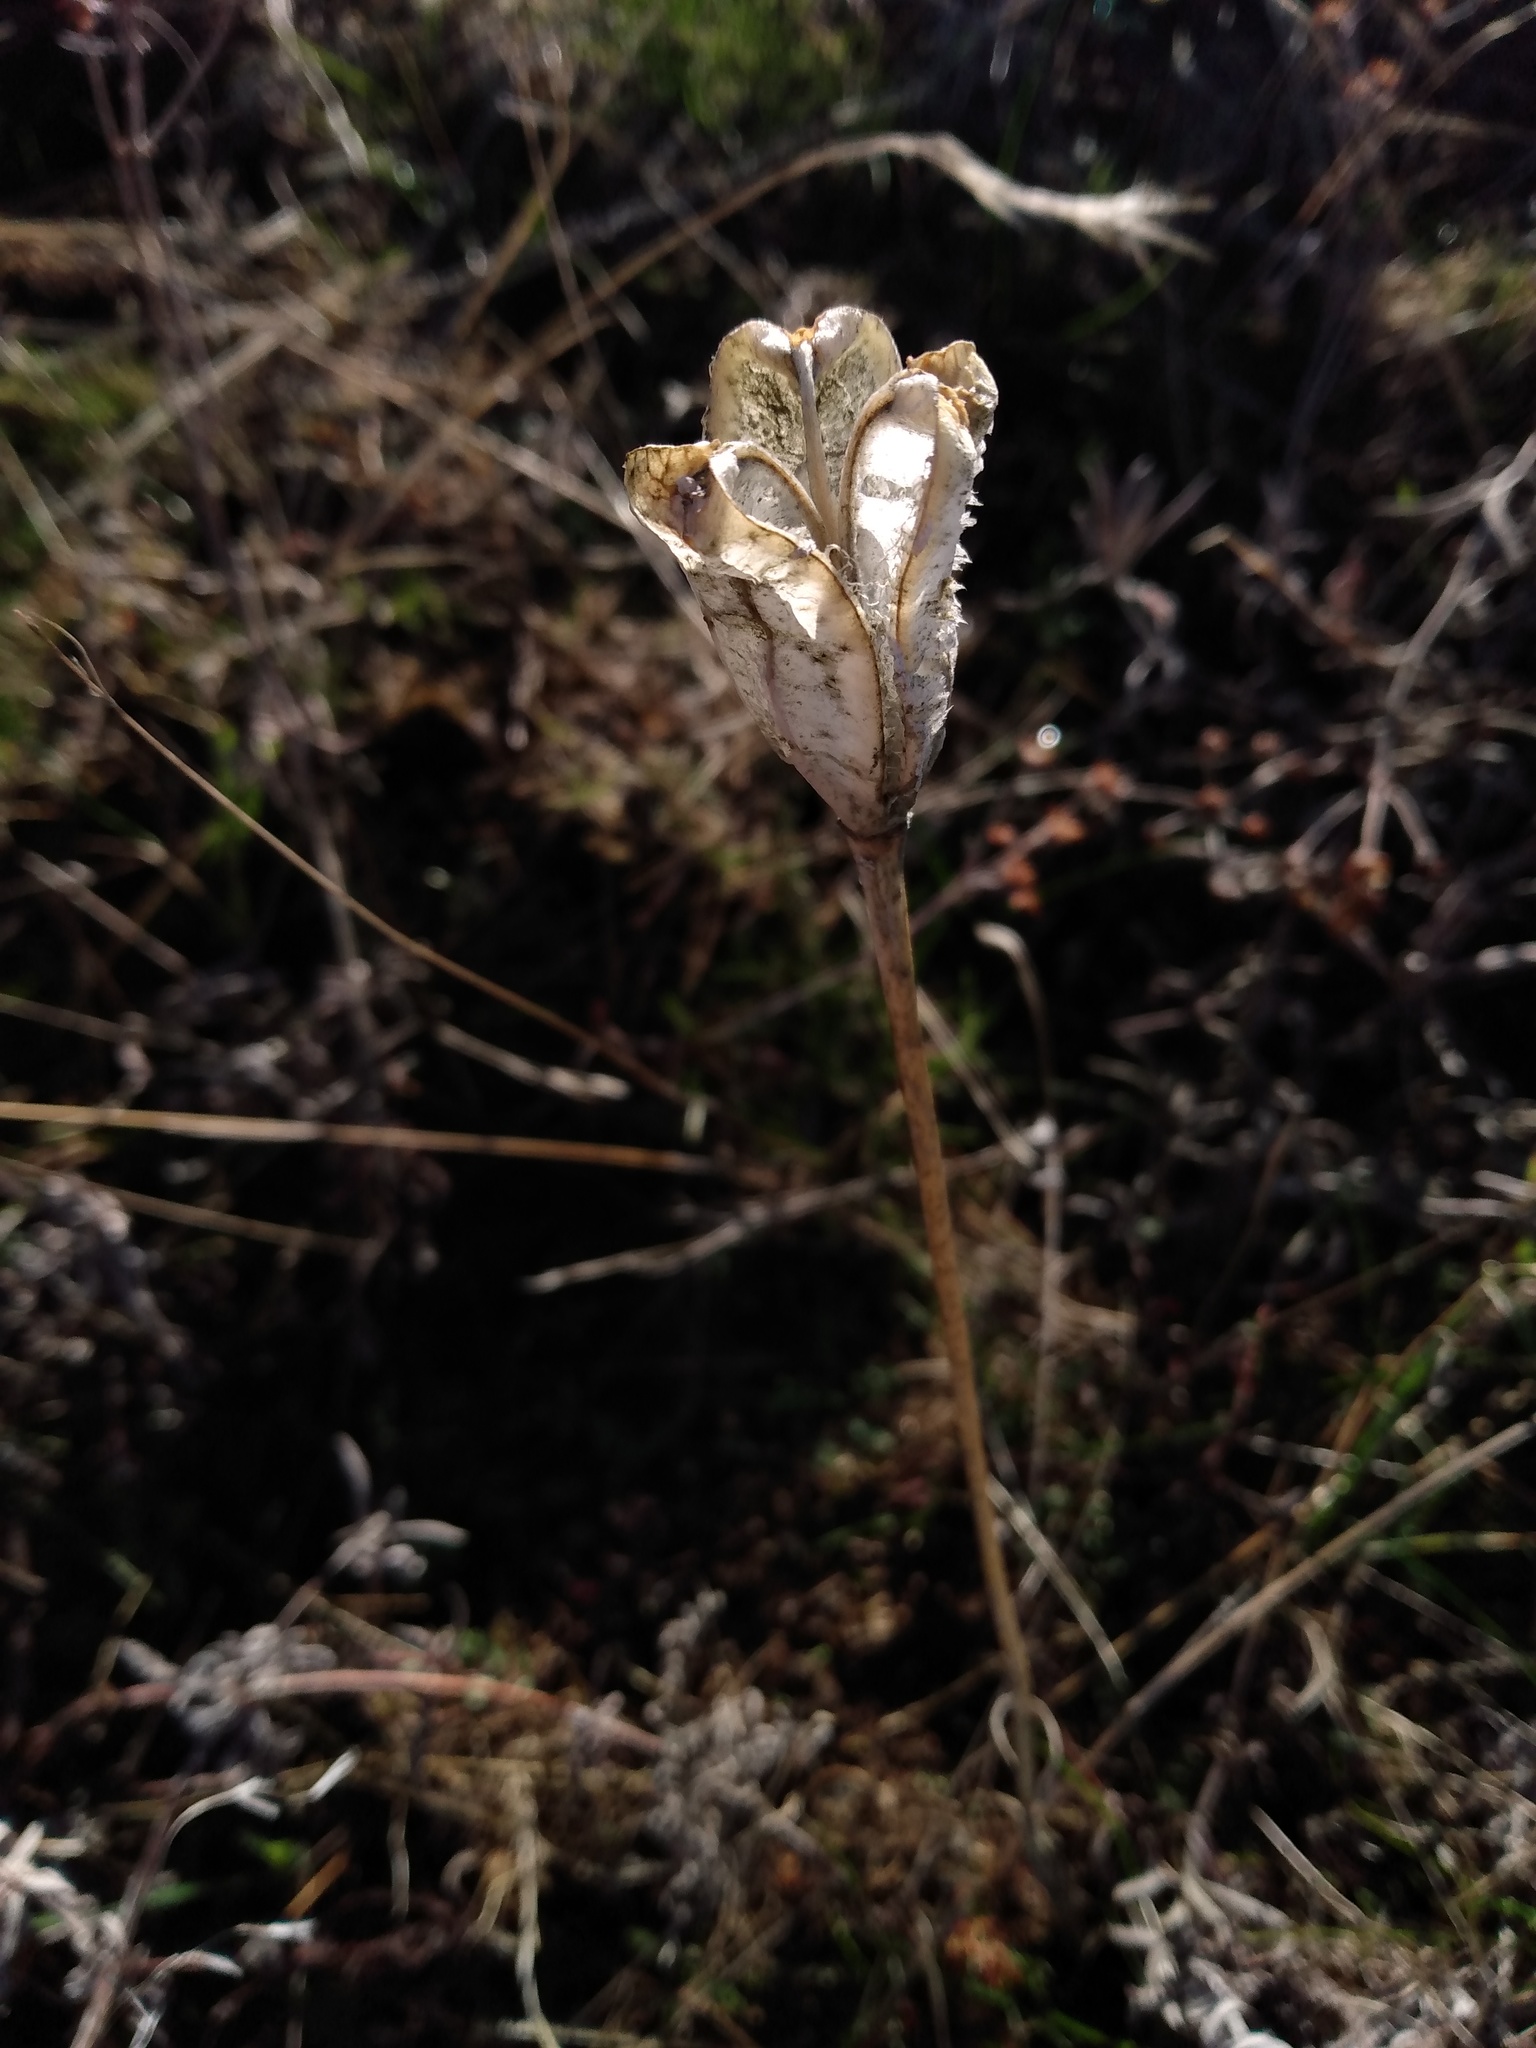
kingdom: Plantae
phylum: Tracheophyta
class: Liliopsida
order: Liliales
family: Liliaceae
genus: Fritillaria
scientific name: Fritillaria pudica
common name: Yellow fritillary
